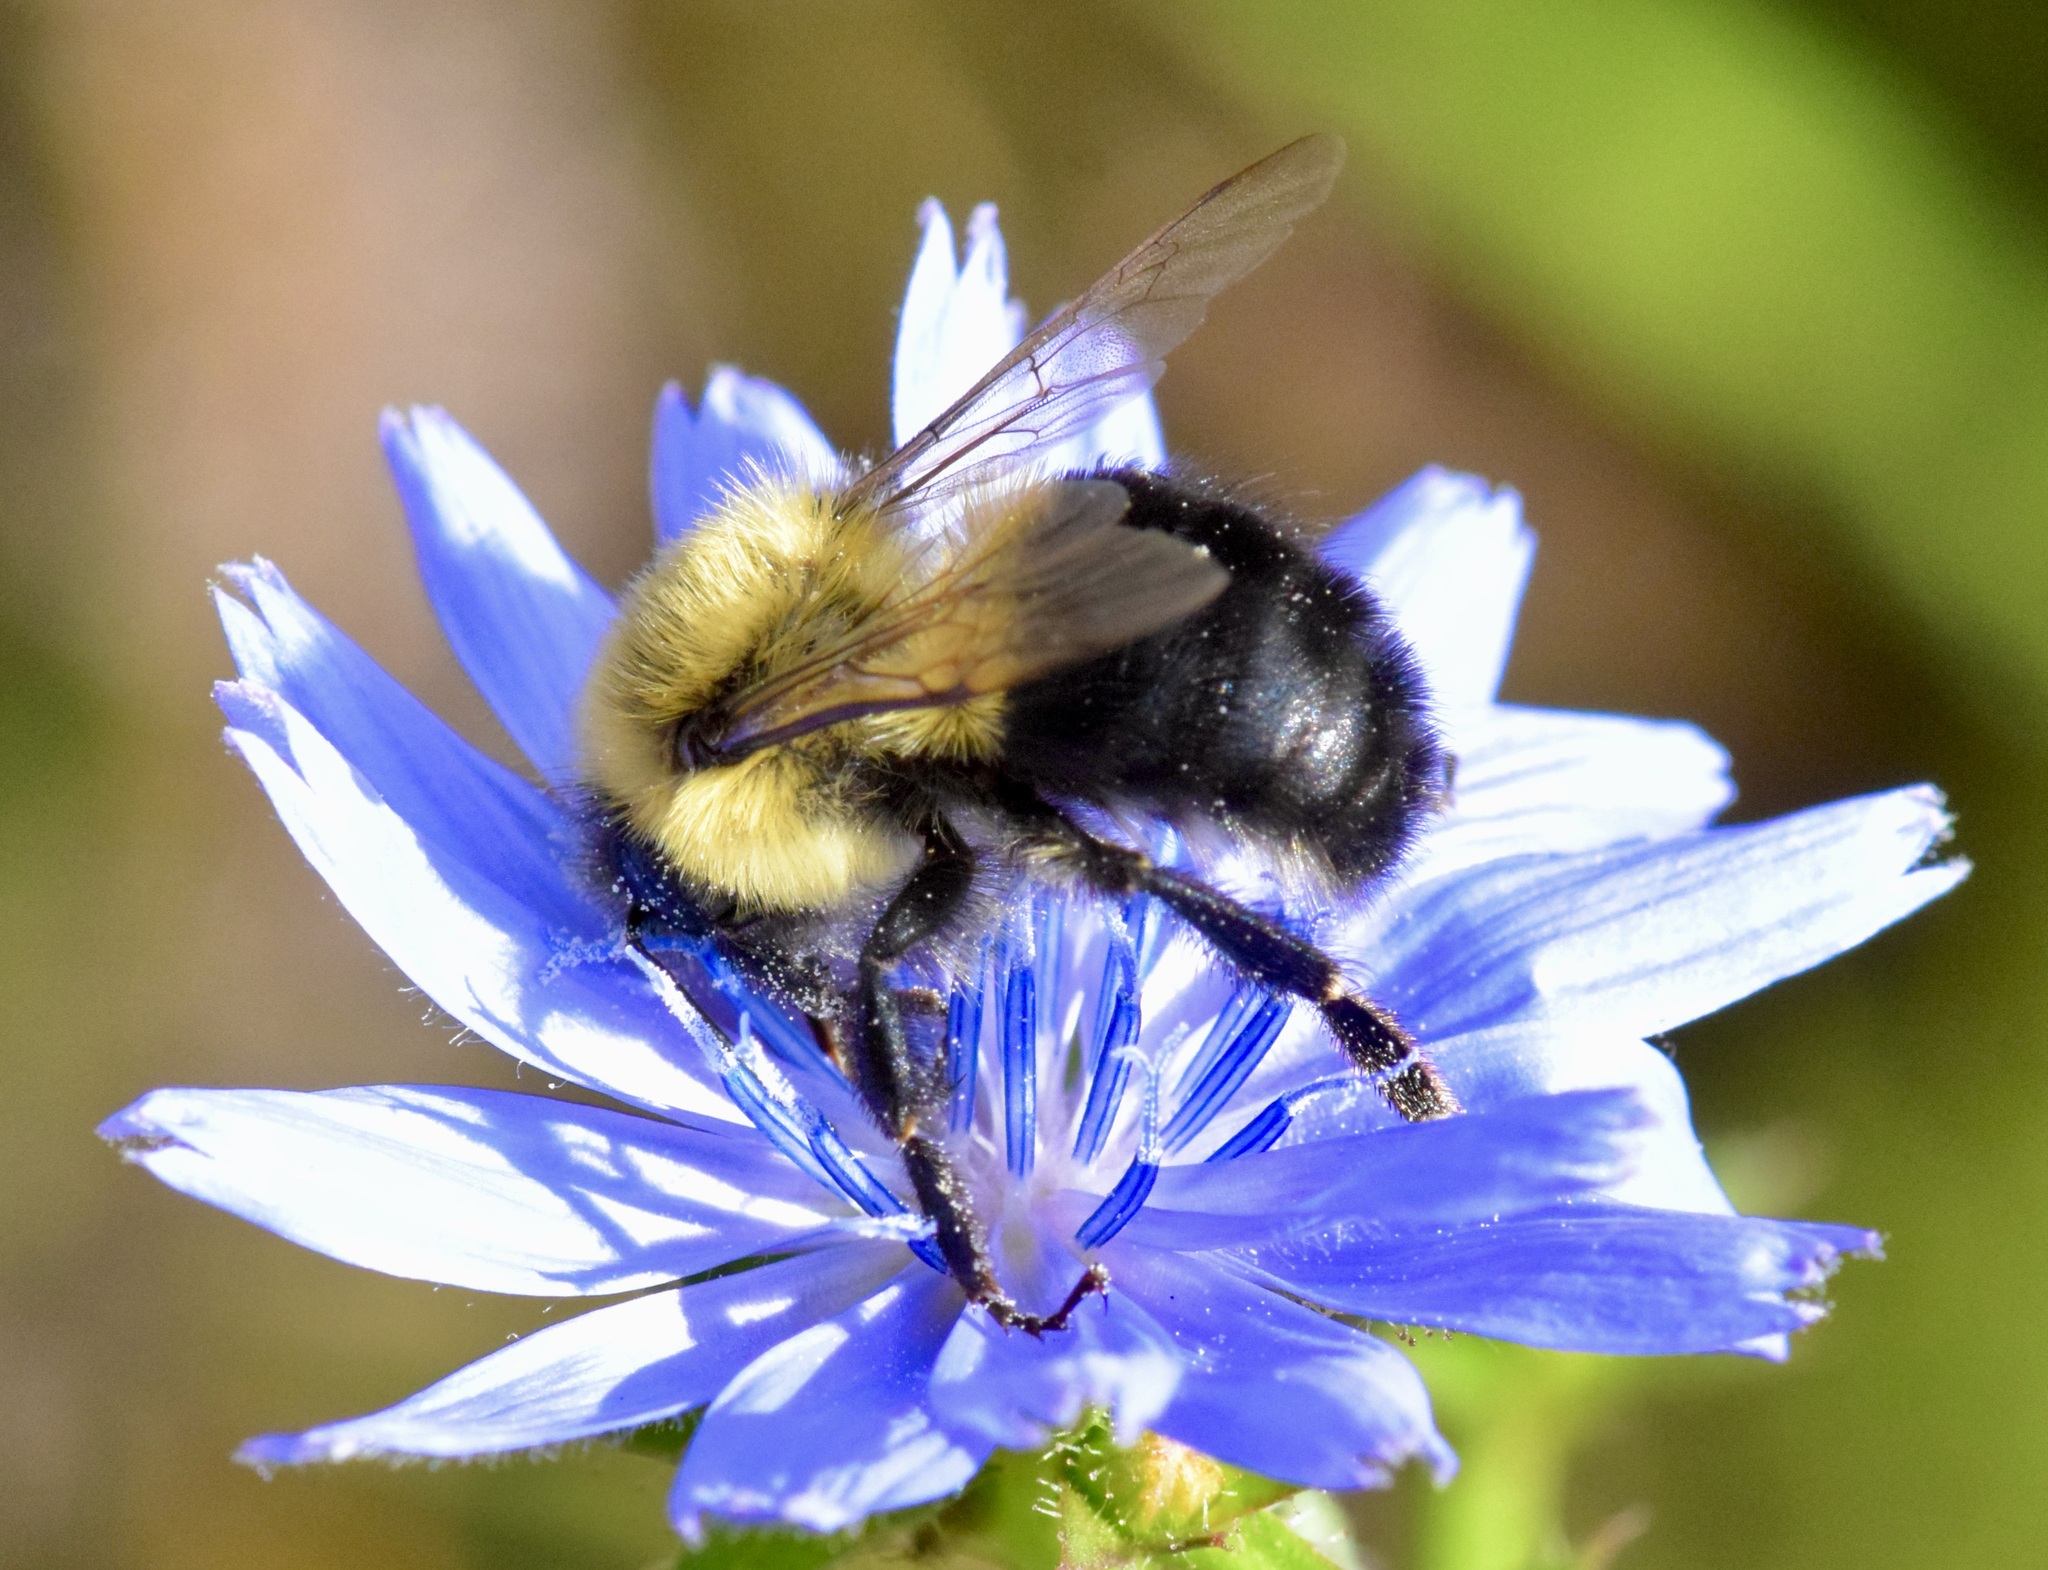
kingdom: Animalia
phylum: Arthropoda
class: Insecta
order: Hymenoptera
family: Apidae
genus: Bombus
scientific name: Bombus impatiens
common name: Common eastern bumble bee
